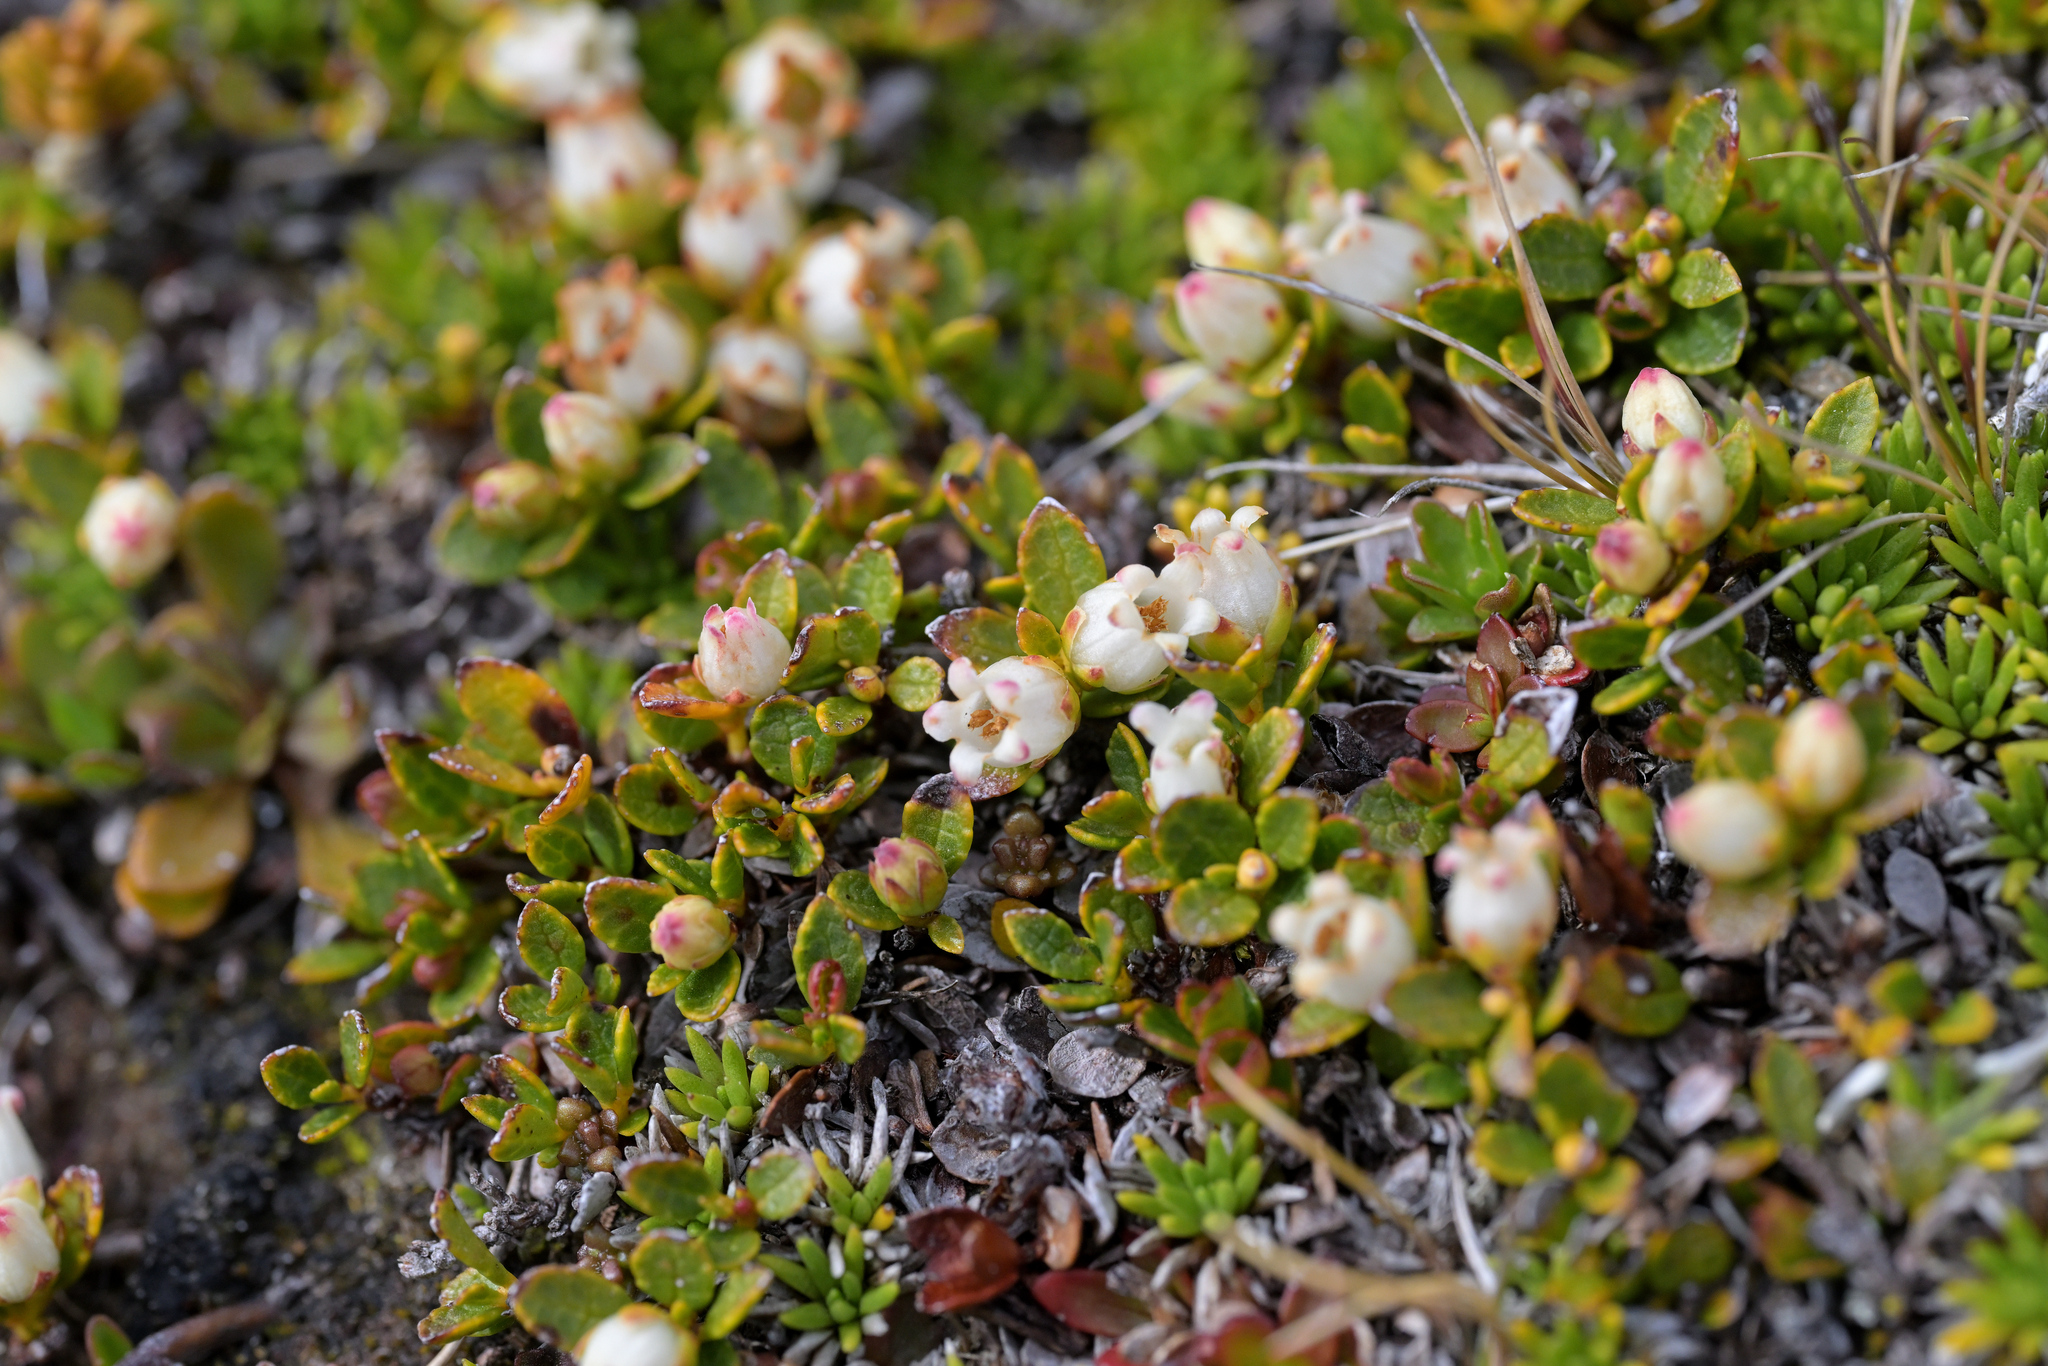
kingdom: Plantae
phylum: Tracheophyta
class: Magnoliopsida
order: Ericales
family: Ericaceae
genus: Gaultheria
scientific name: Gaultheria nubicola
